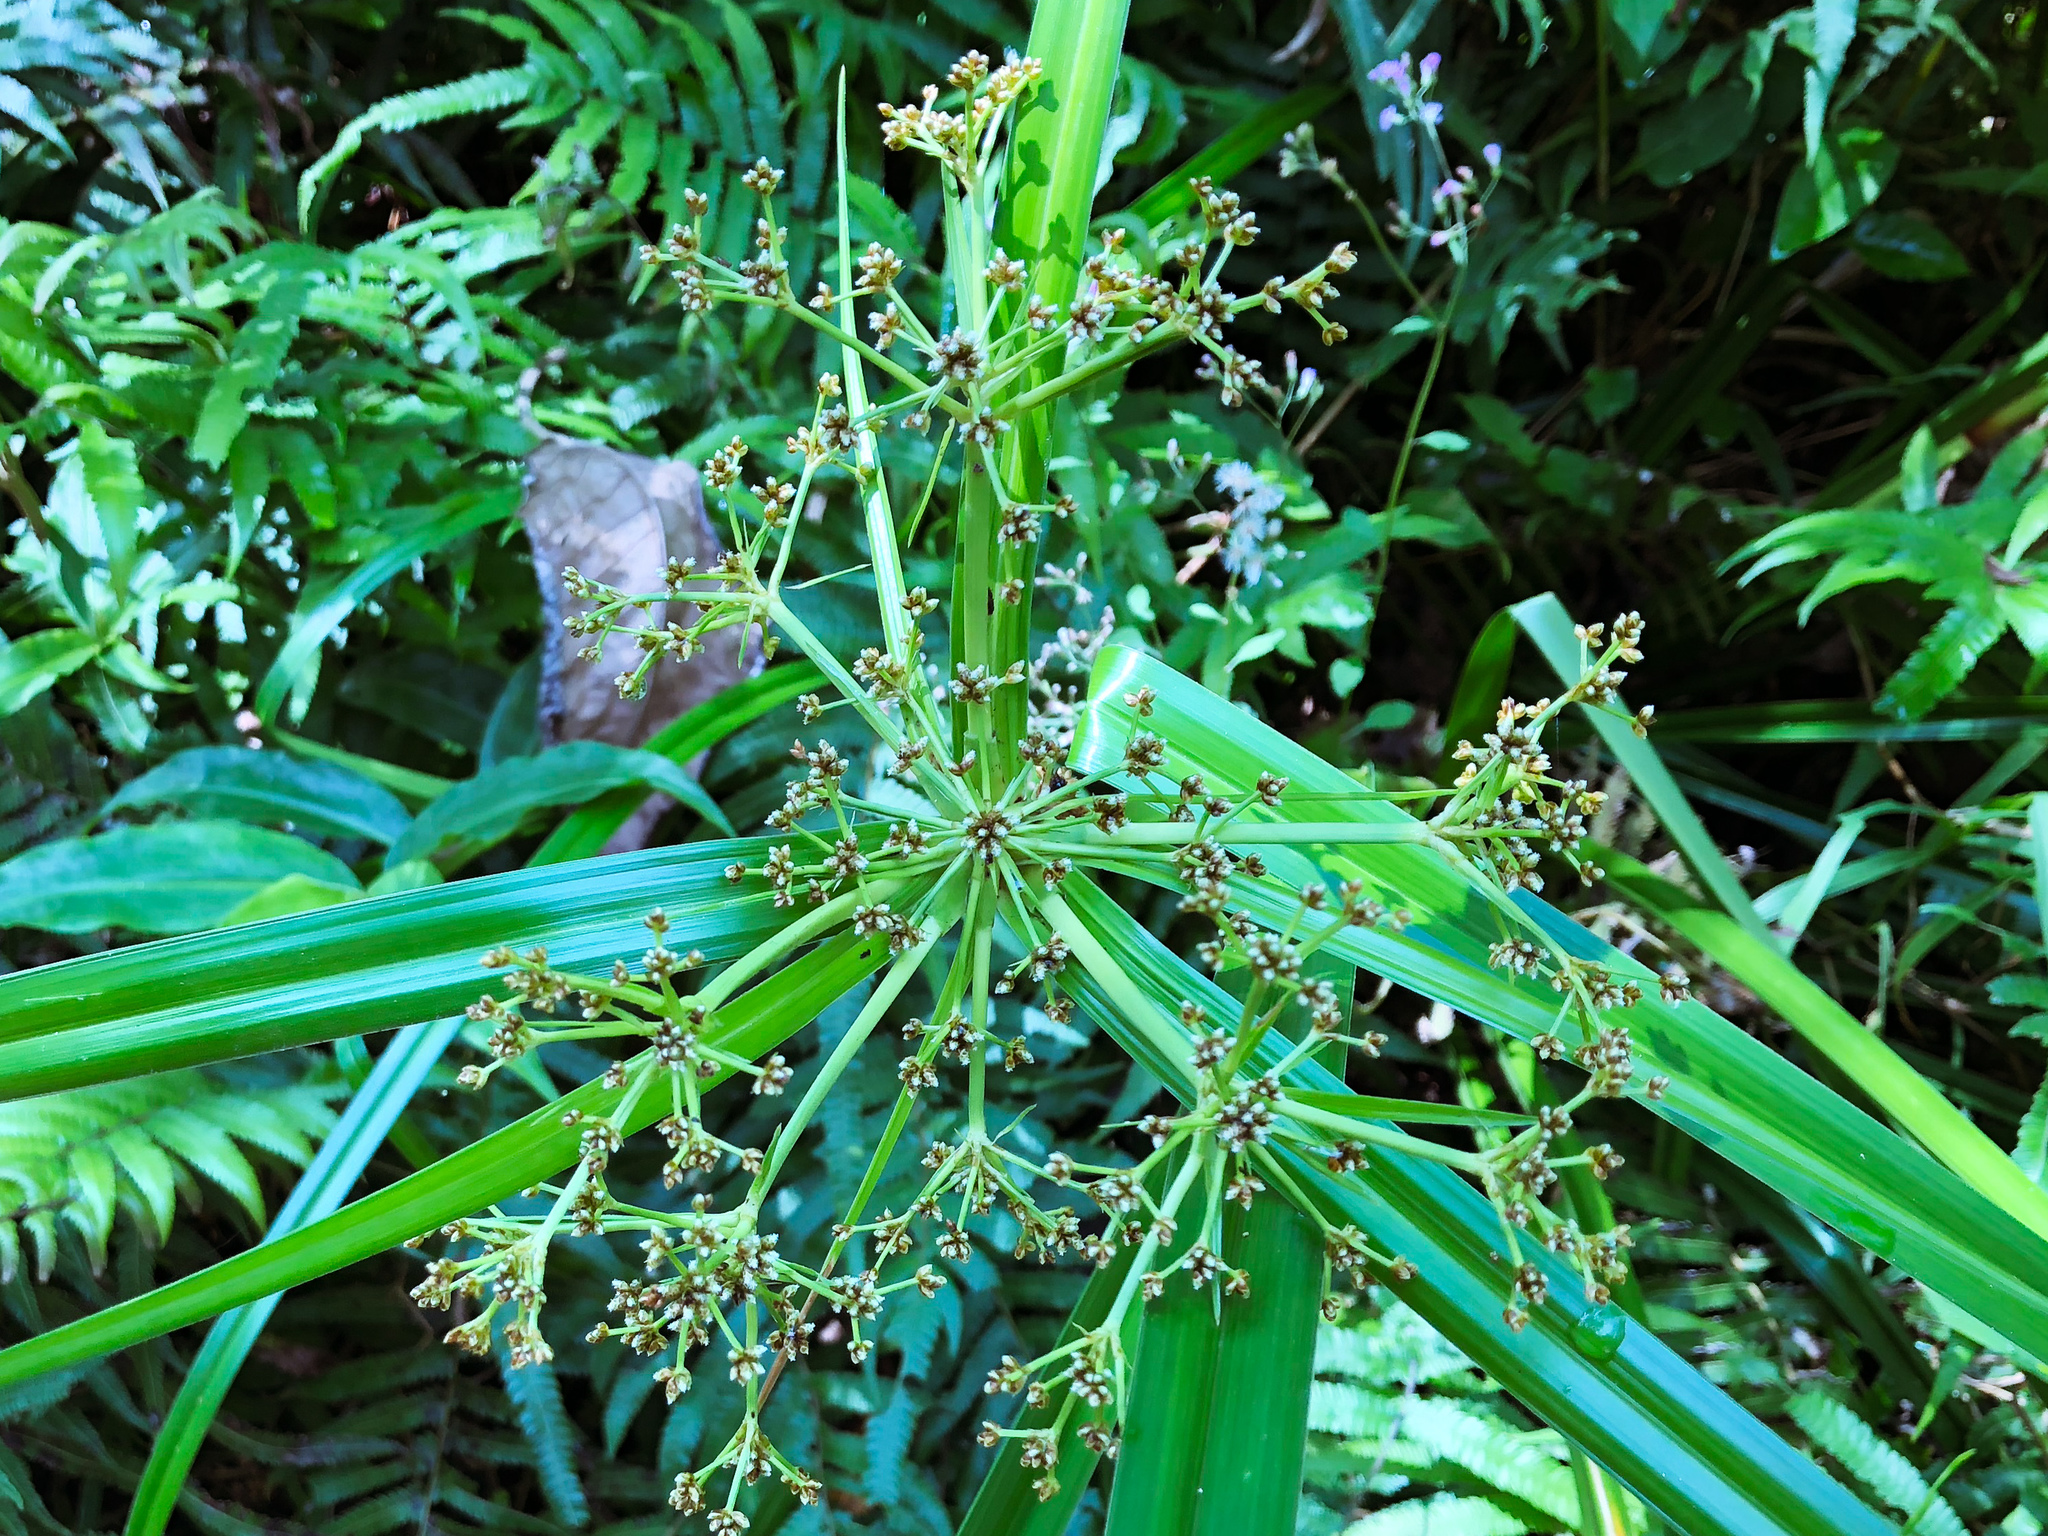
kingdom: Plantae
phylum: Tracheophyta
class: Liliopsida
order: Poales
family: Cyperaceae
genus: Scirpus
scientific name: Scirpus ternatanus
